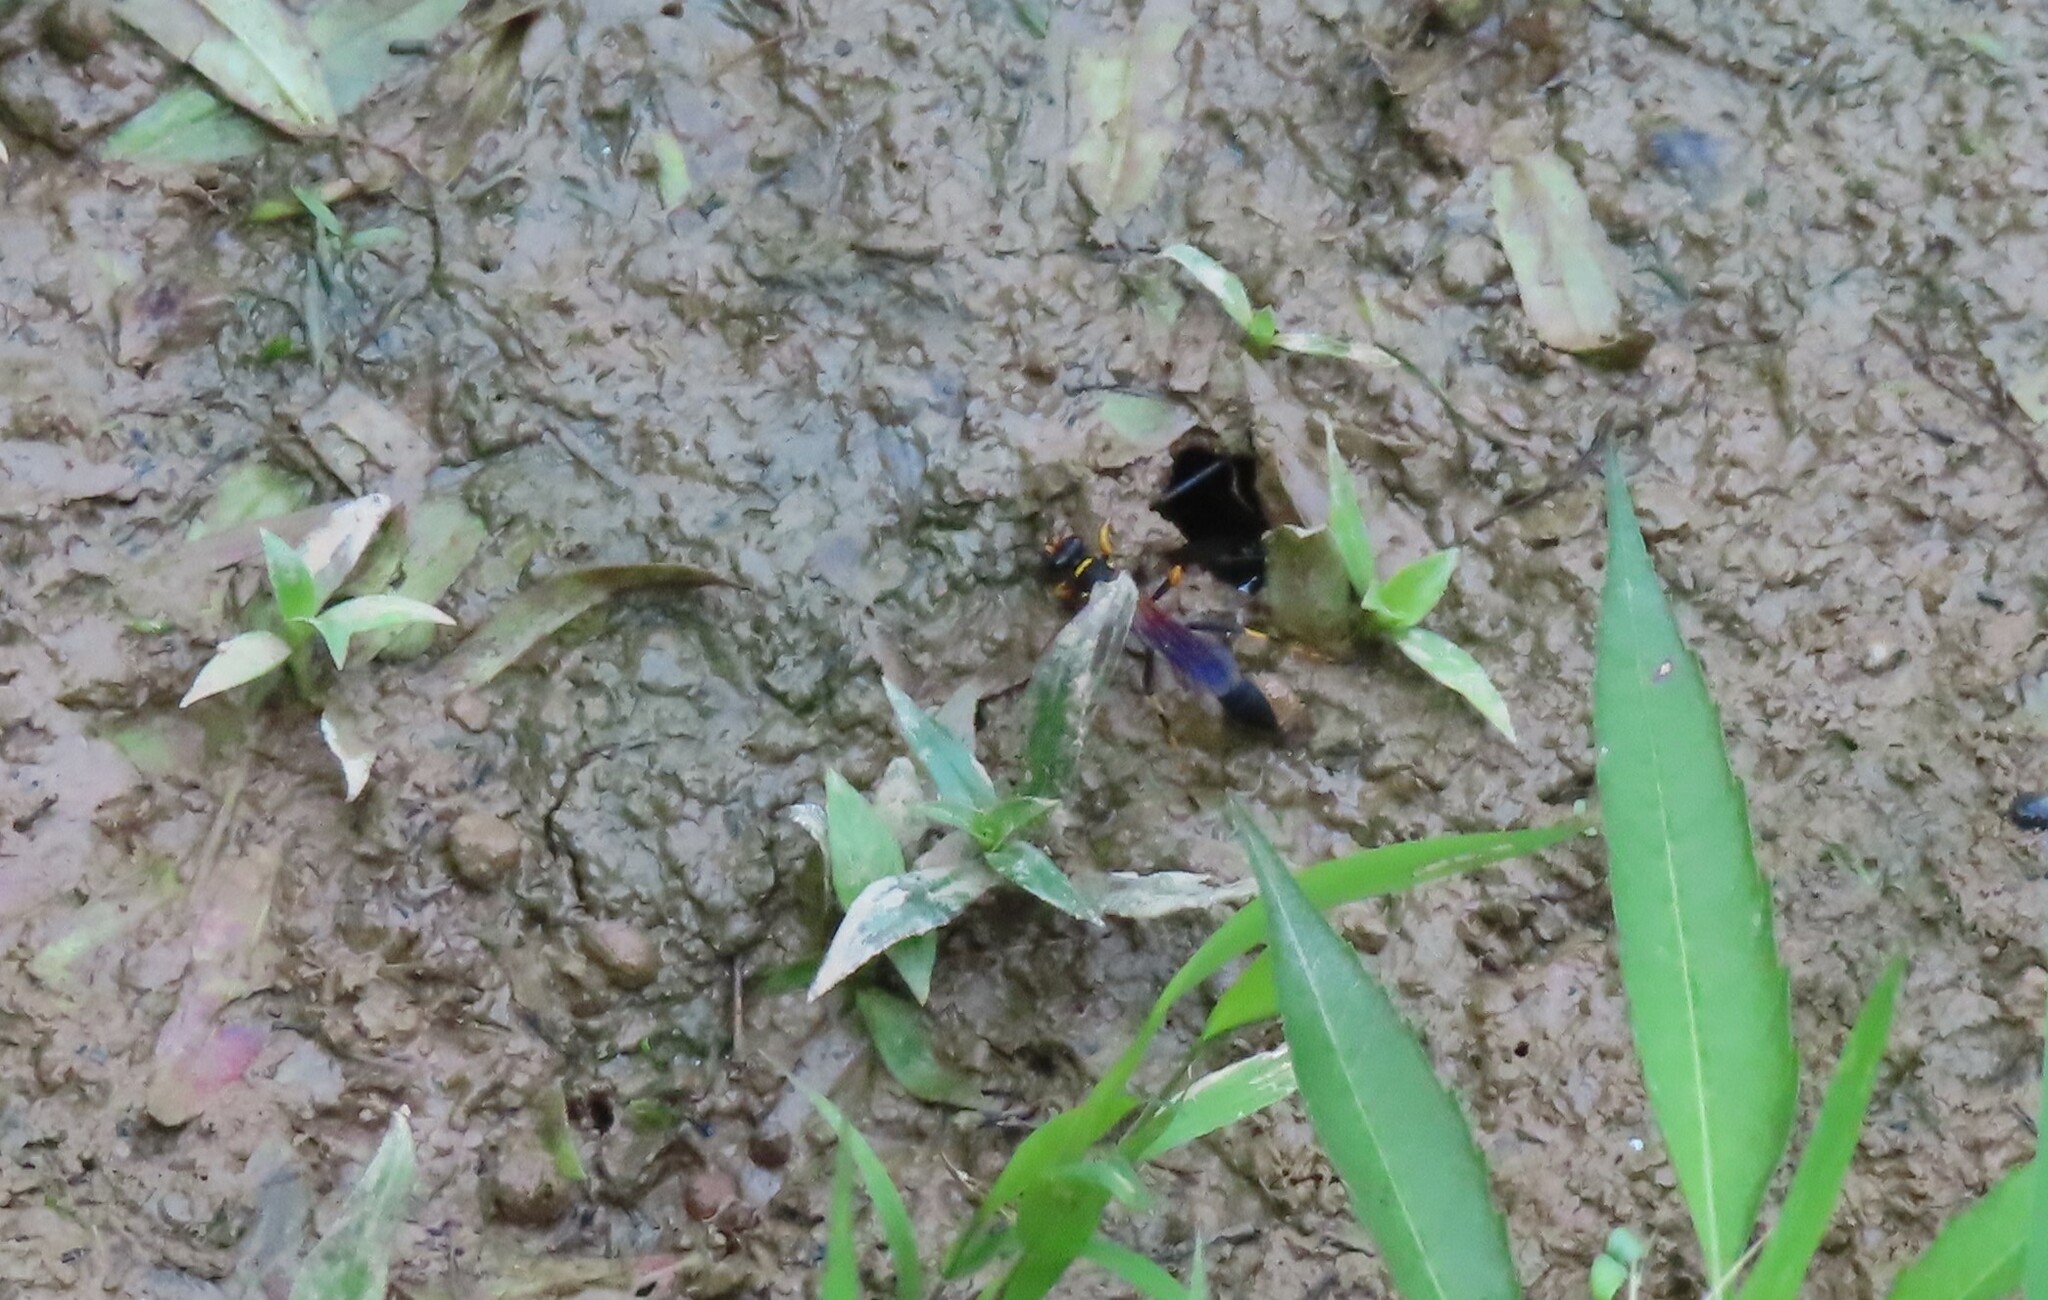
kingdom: Animalia
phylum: Arthropoda
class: Insecta
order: Hymenoptera
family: Sphecidae
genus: Sceliphron
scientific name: Sceliphron caementarium
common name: Mud dauber
